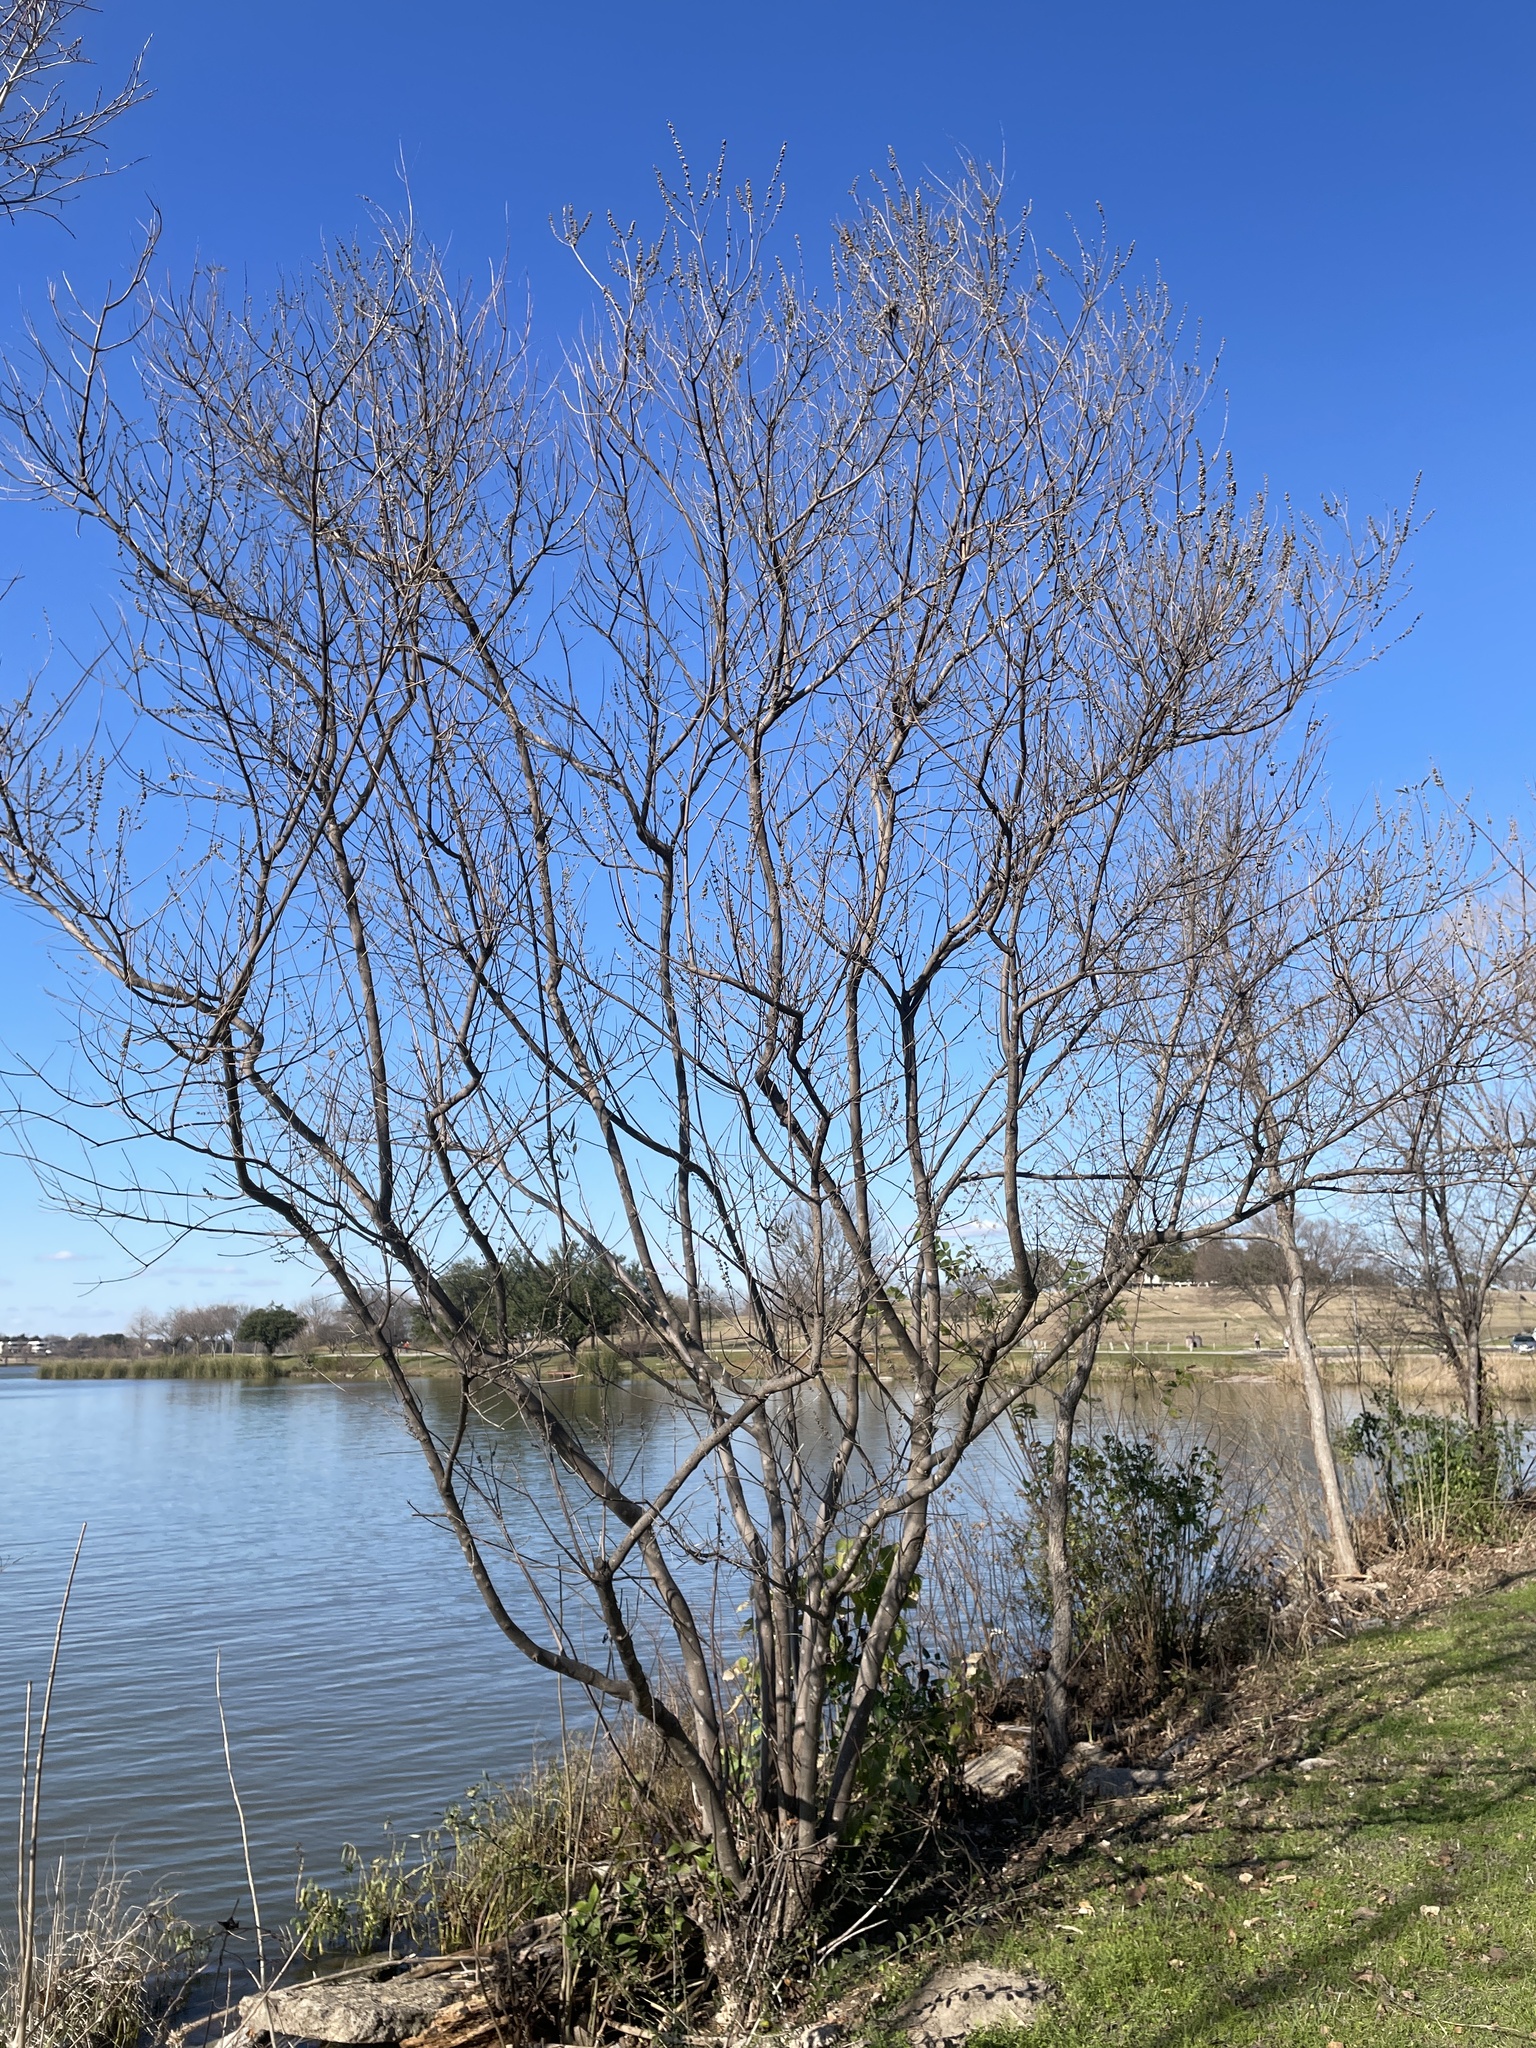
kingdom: Plantae
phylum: Tracheophyta
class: Magnoliopsida
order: Lamiales
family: Lamiaceae
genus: Vitex
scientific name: Vitex agnus-castus
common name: Chasteberry
